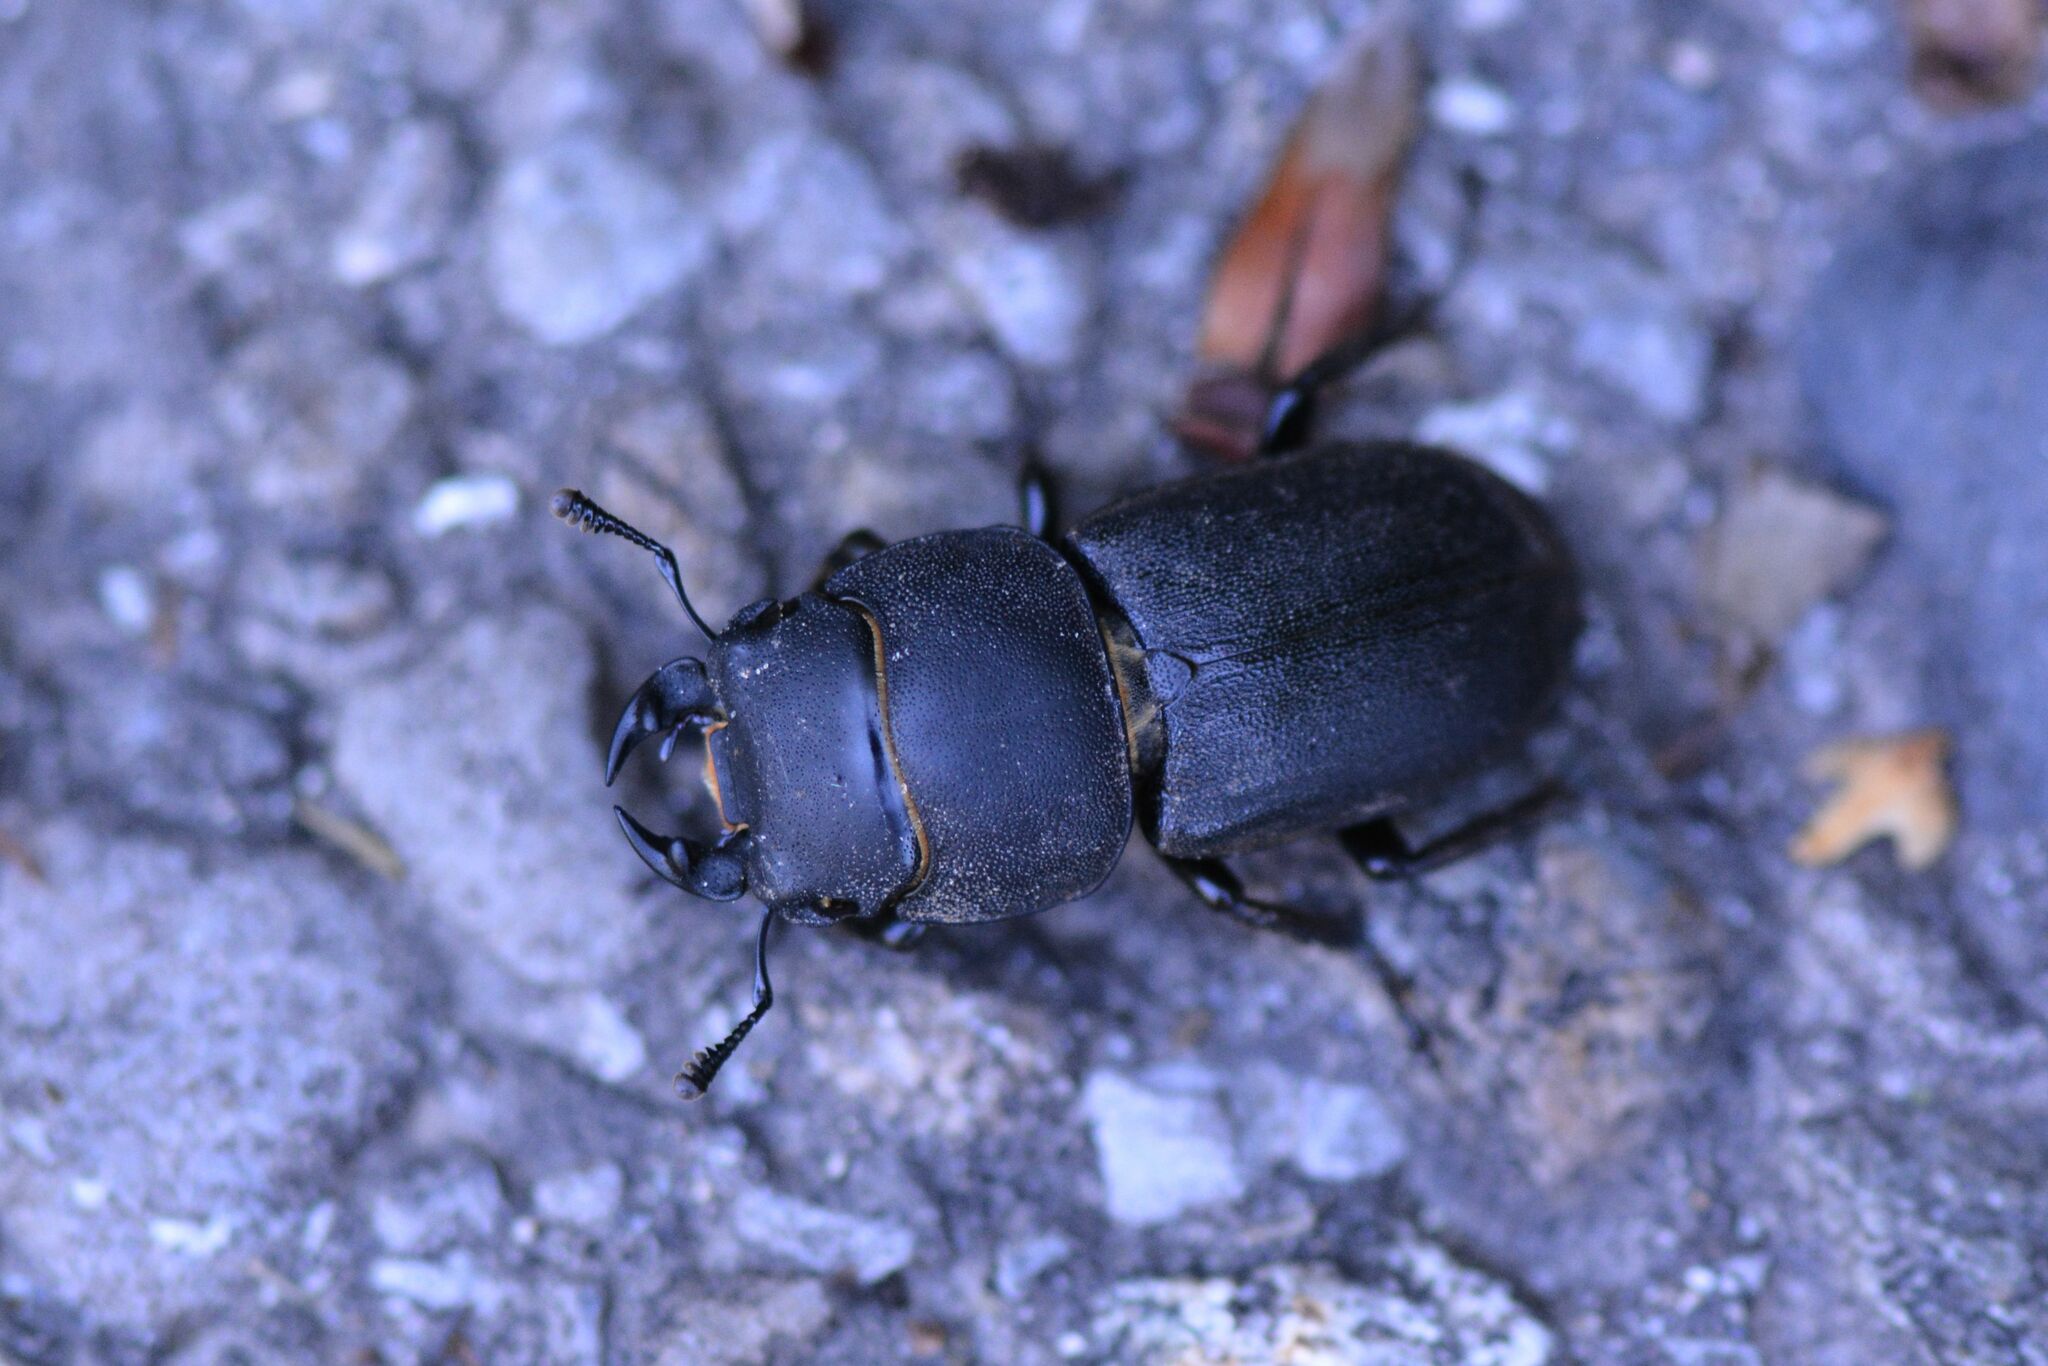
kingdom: Animalia
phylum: Arthropoda
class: Insecta
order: Coleoptera
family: Lucanidae
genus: Dorcus
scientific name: Dorcus parallelipipedus
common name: Lesser stag beetle
